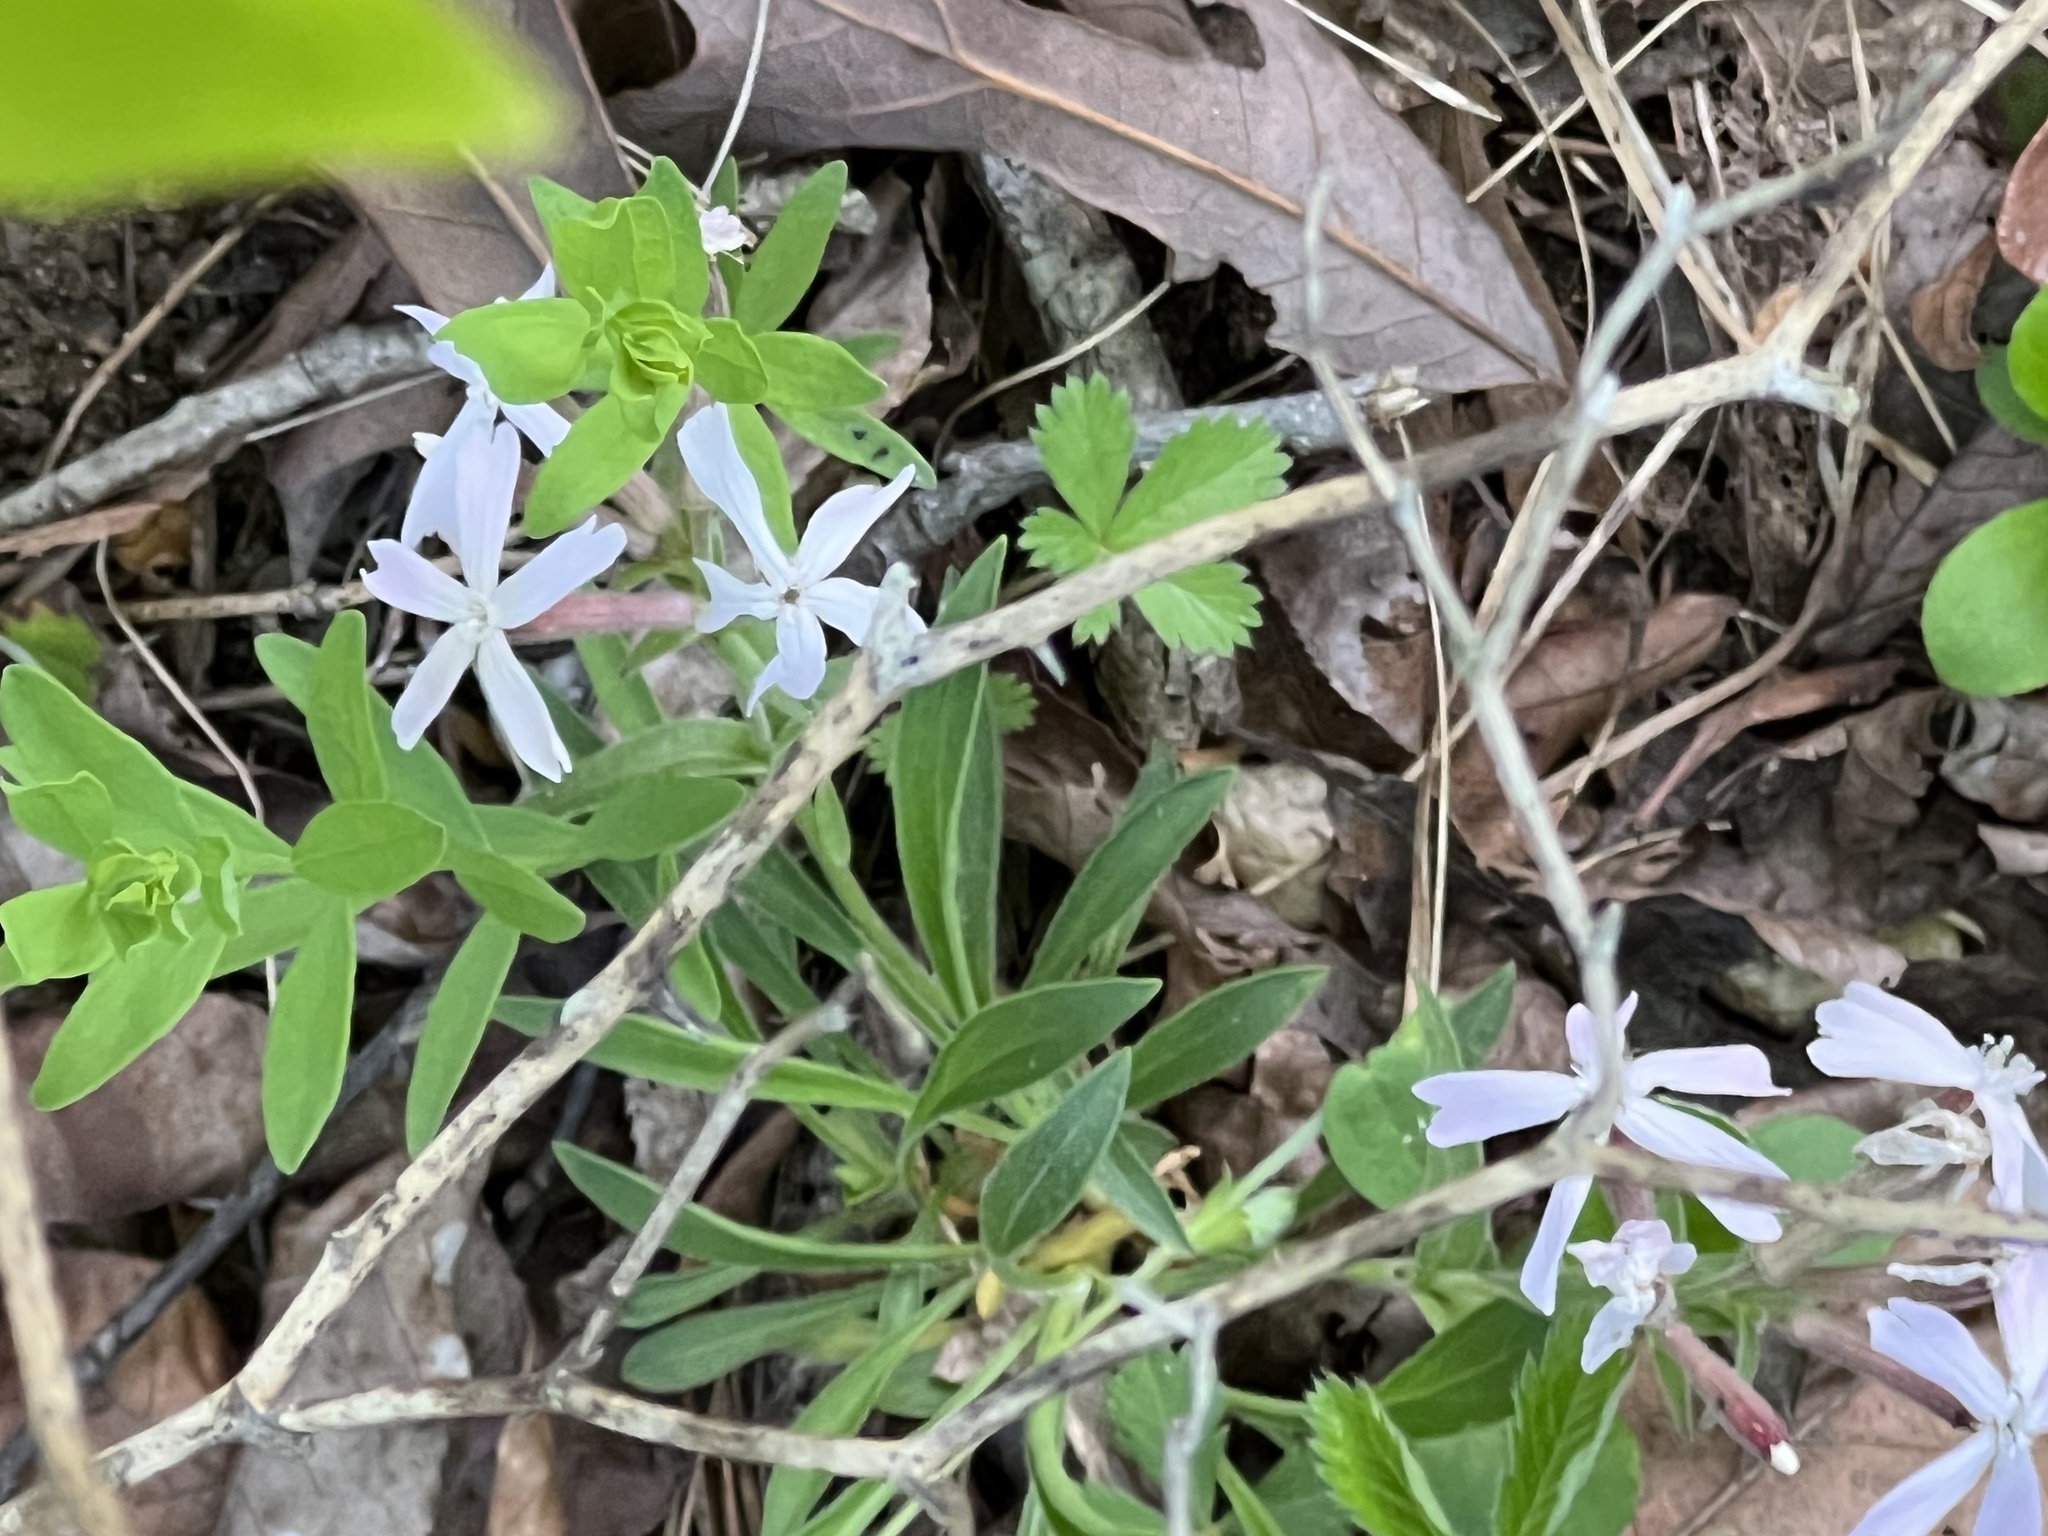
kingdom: Plantae
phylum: Tracheophyta
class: Magnoliopsida
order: Caryophyllales
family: Caryophyllaceae
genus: Silene
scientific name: Silene caroliniana
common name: Sticky catchfly
